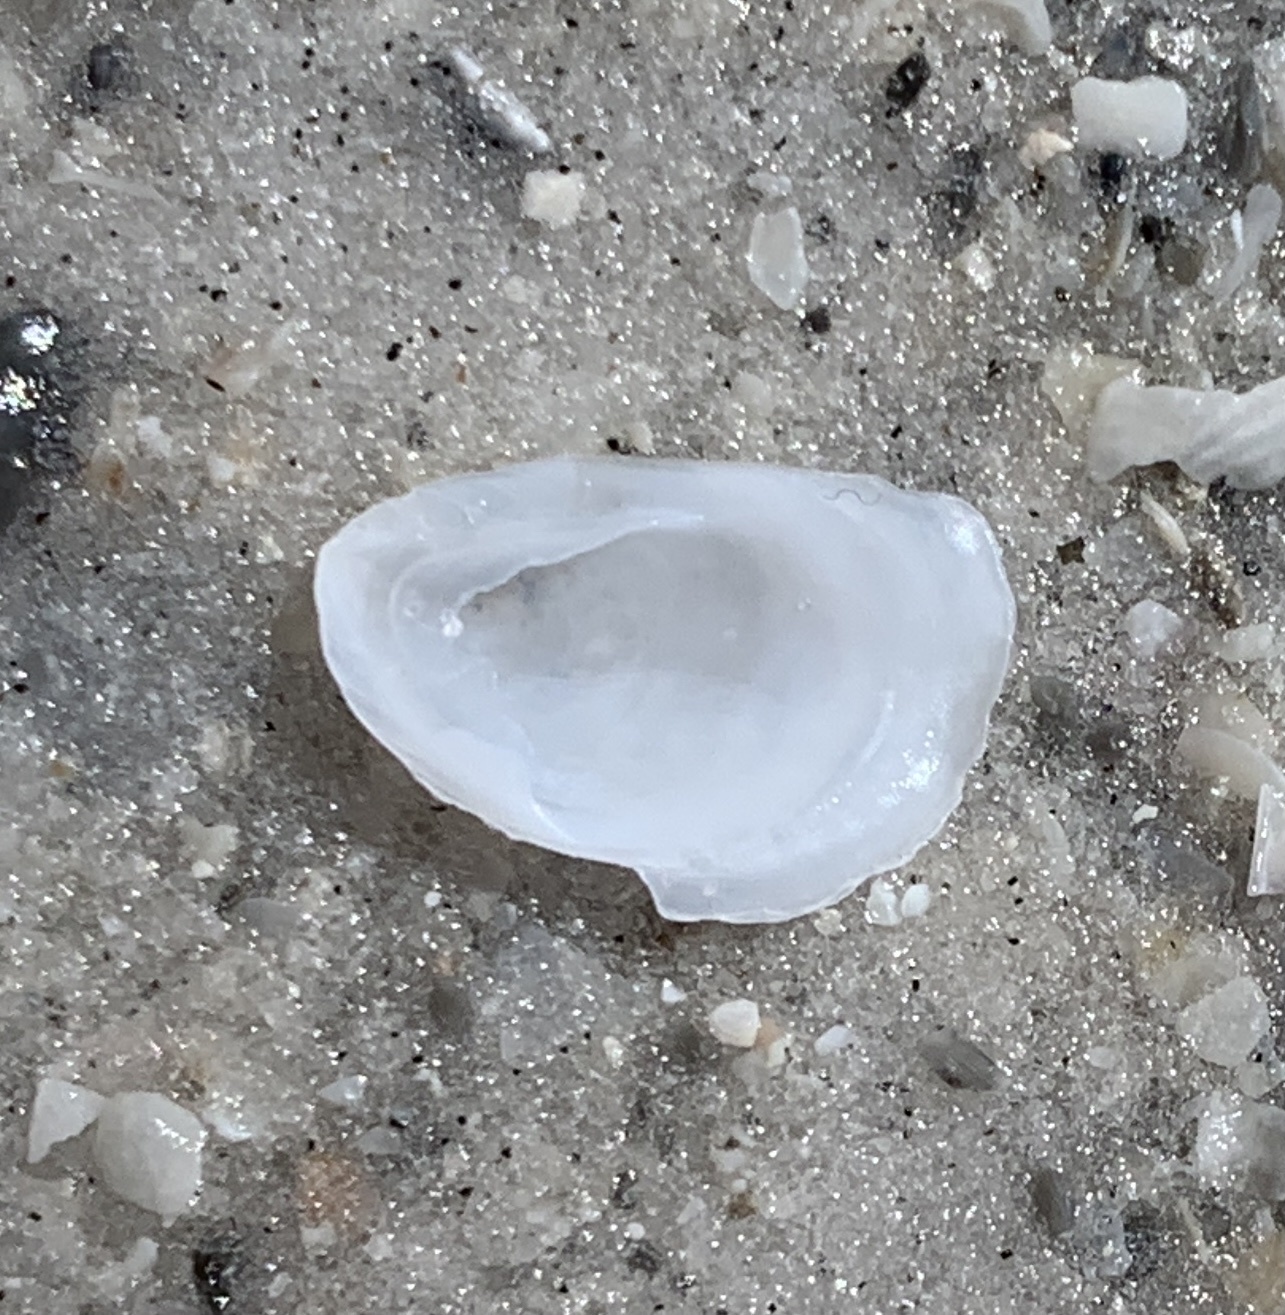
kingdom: Animalia
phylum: Mollusca
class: Gastropoda
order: Littorinimorpha
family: Calyptraeidae
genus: Crepidula
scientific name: Crepidula
